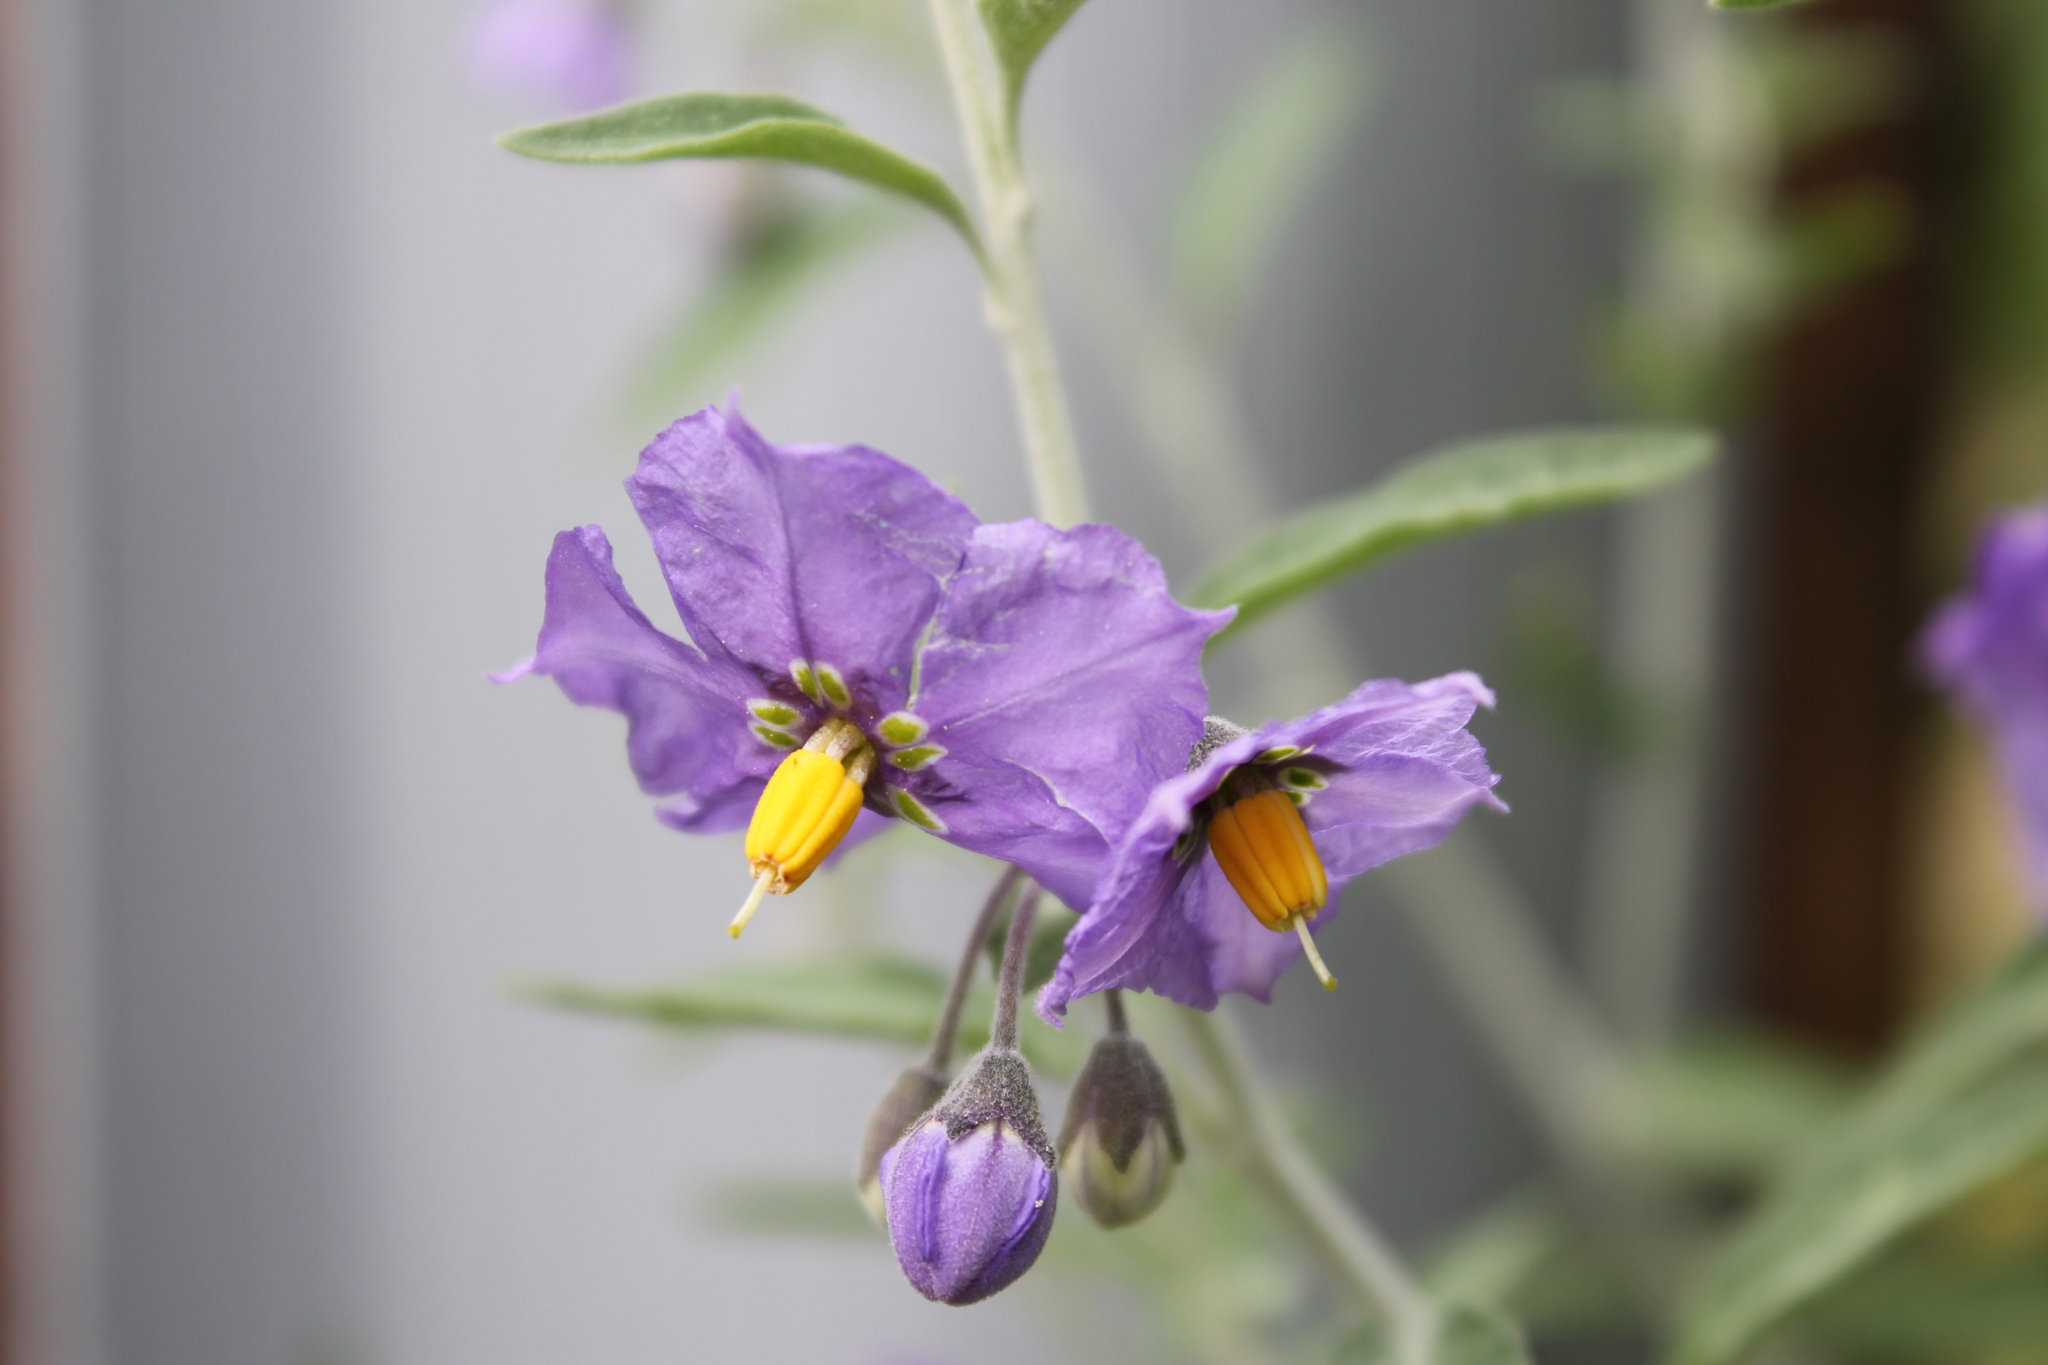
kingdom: Plantae
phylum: Tracheophyta
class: Magnoliopsida
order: Solanales
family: Solanaceae
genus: Solanum
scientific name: Solanum umbelliferum
